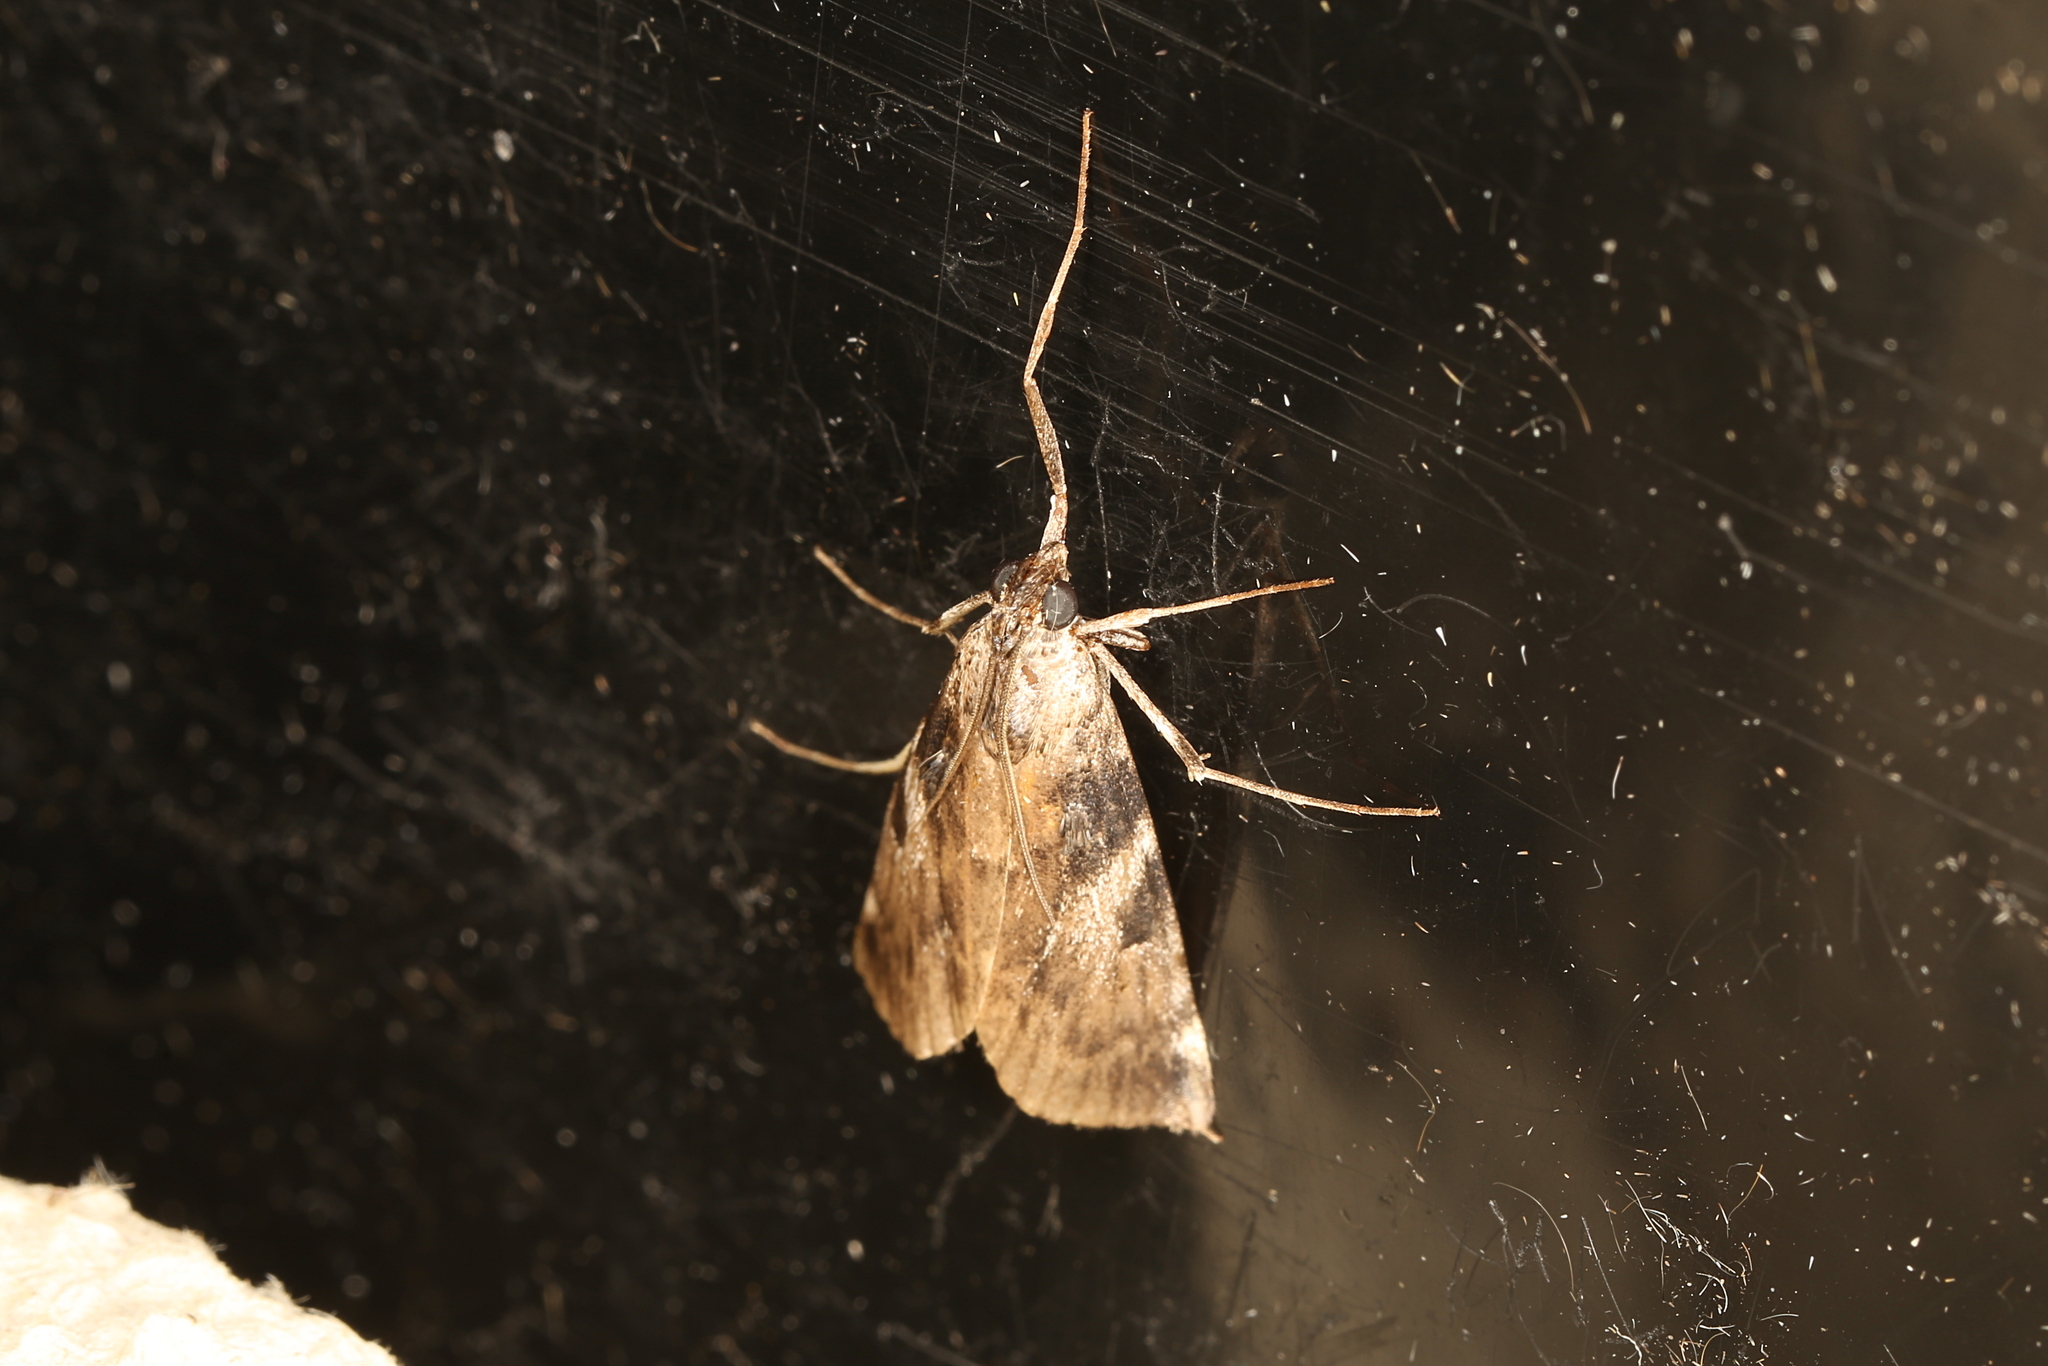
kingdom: Animalia
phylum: Arthropoda
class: Insecta
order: Lepidoptera
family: Pyralidae
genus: Astrapometis
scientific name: Astrapometis saburalis
